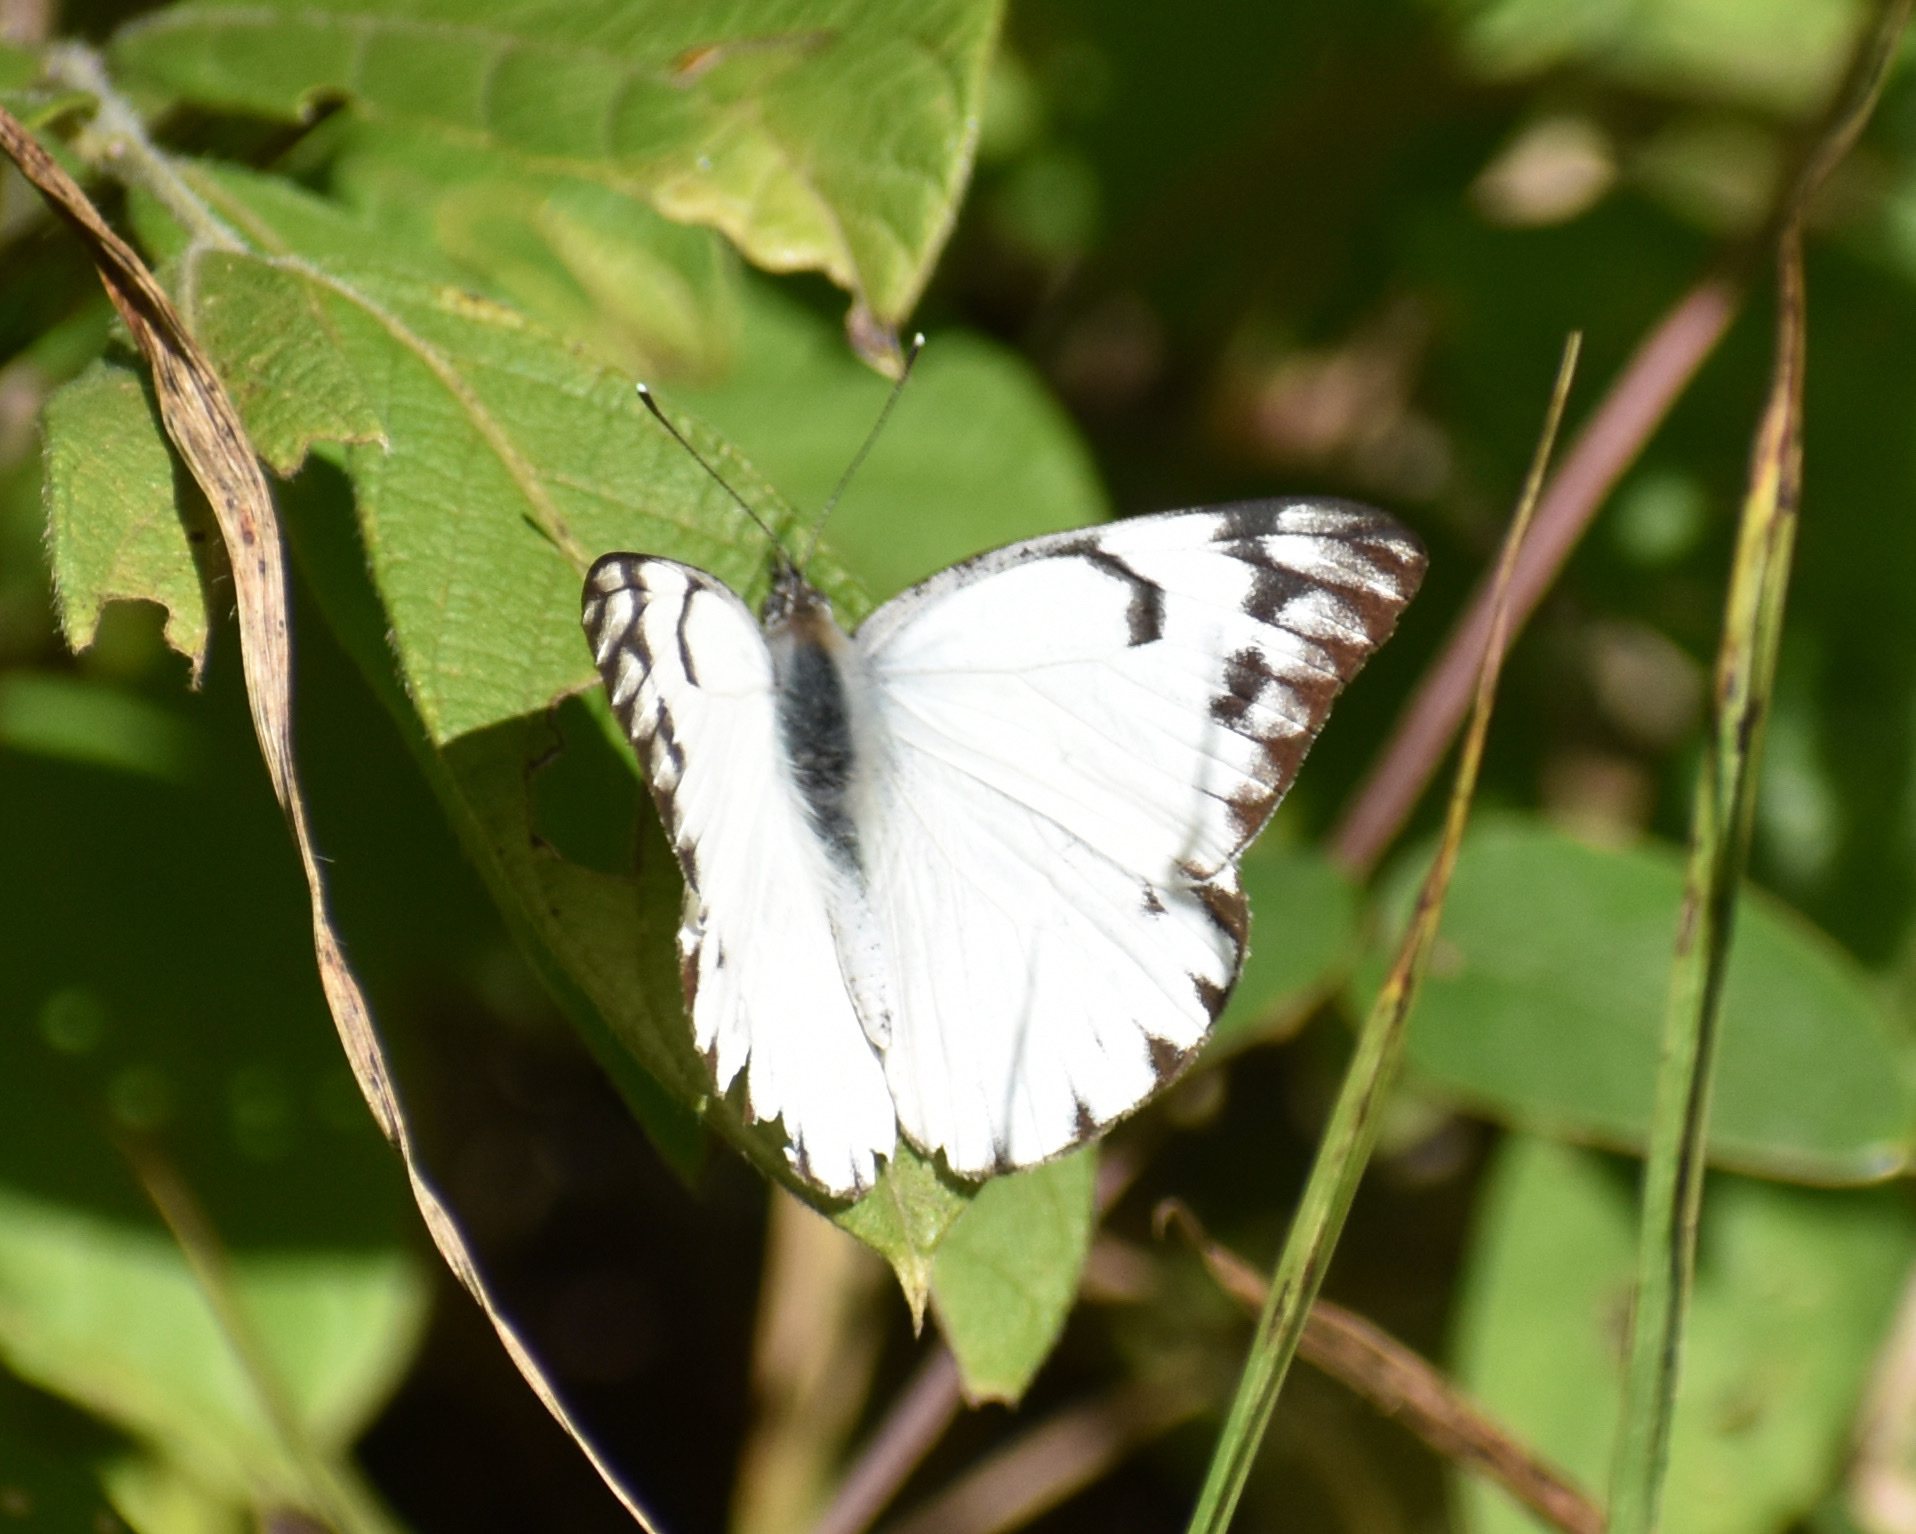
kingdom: Animalia
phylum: Arthropoda
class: Insecta
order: Lepidoptera
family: Pieridae
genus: Belenois
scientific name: Belenois gidica
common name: Pointed caper white
